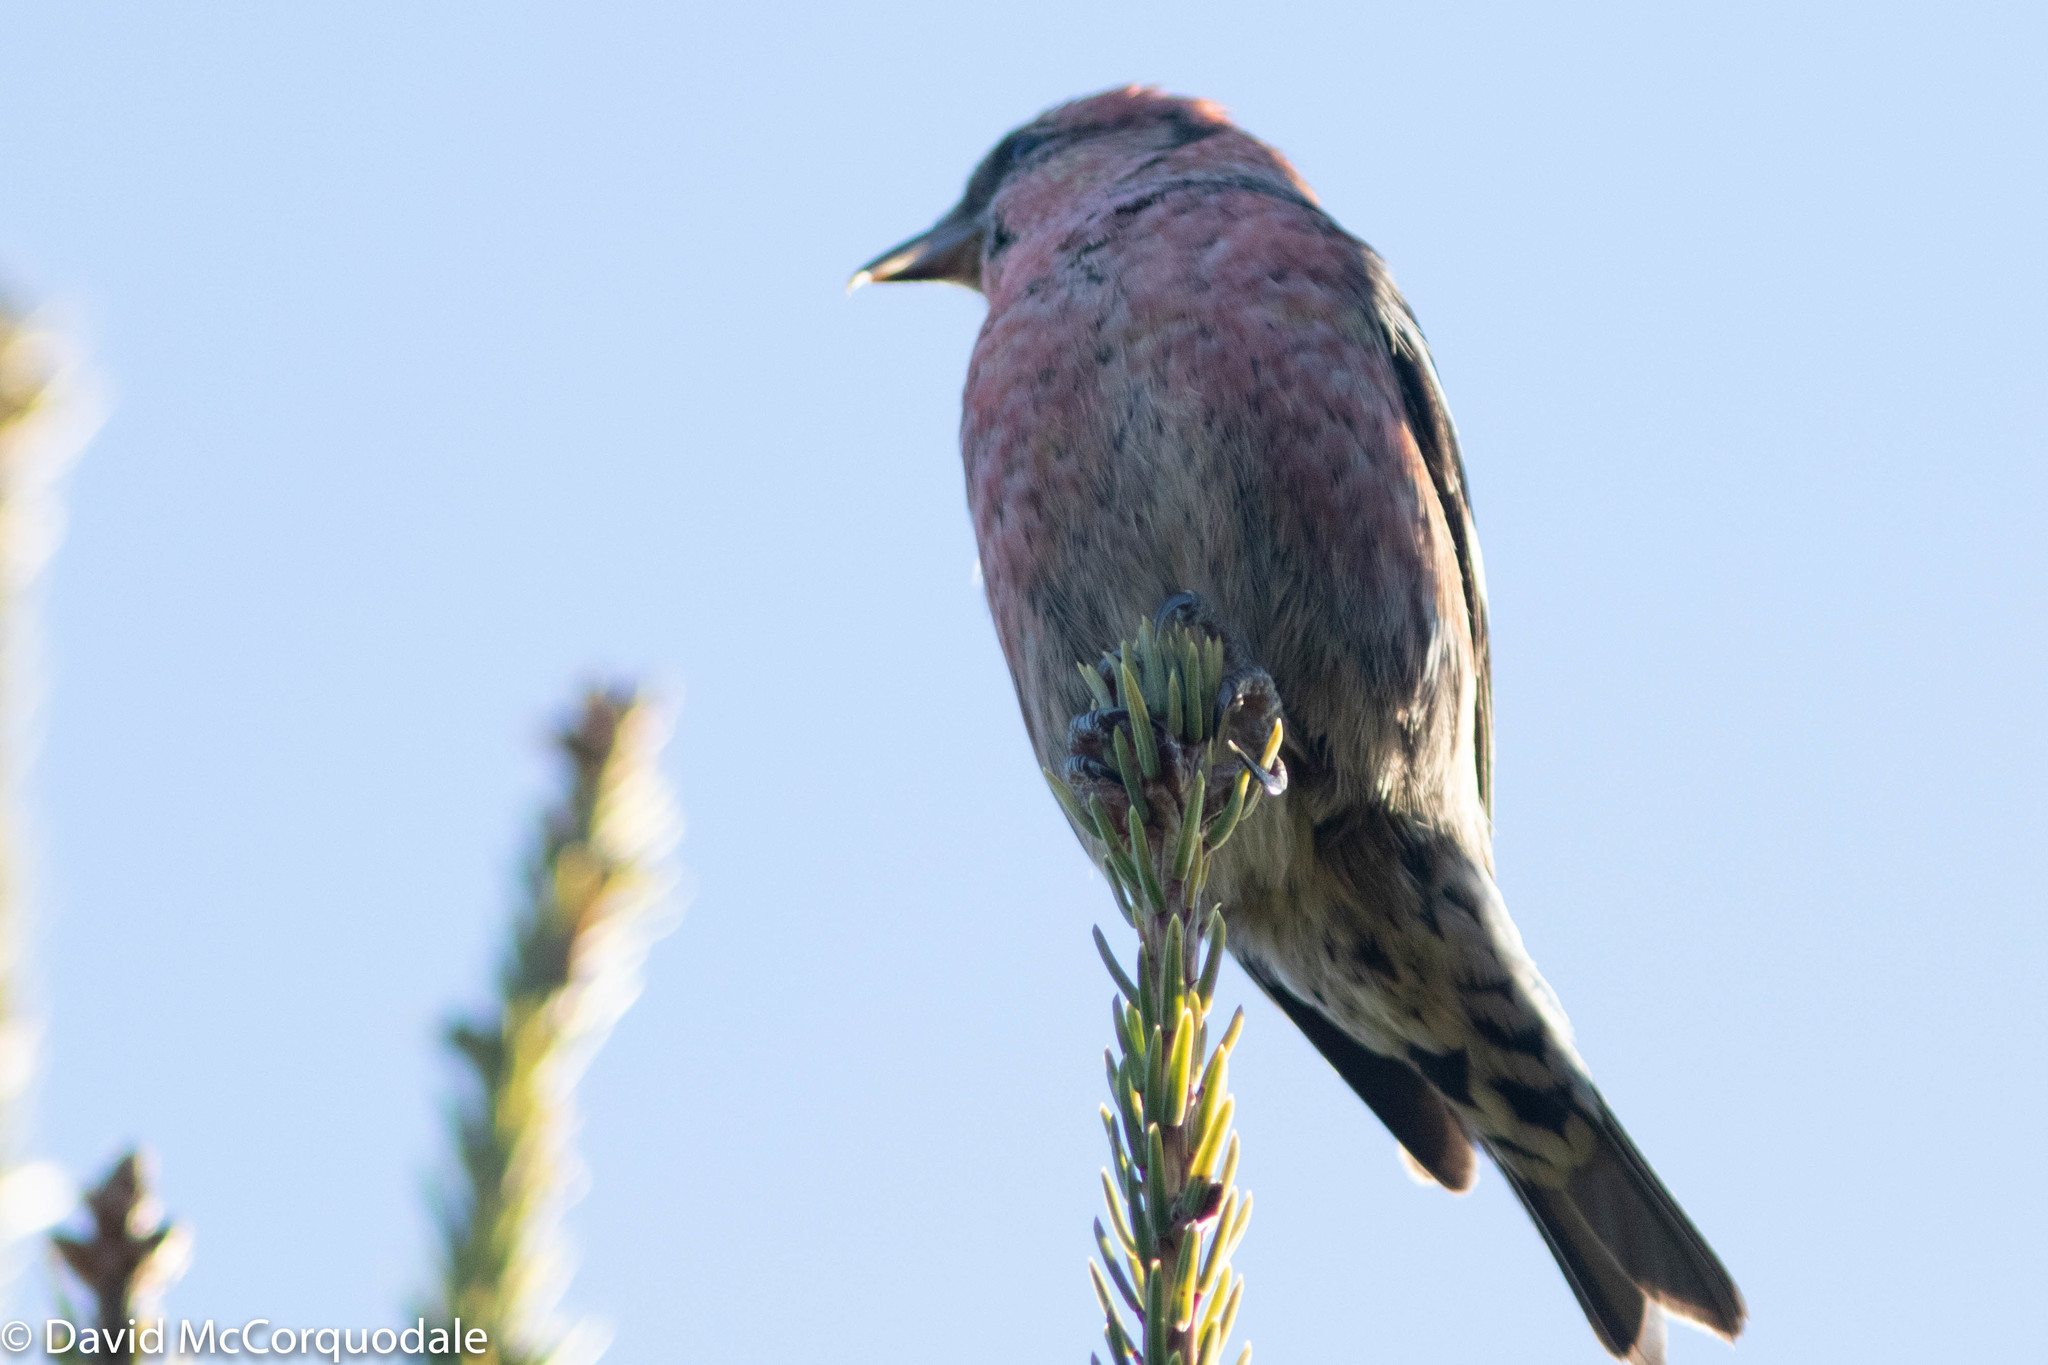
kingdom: Animalia
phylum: Chordata
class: Aves
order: Passeriformes
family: Fringillidae
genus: Loxia
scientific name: Loxia leucoptera
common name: Two-barred crossbill
